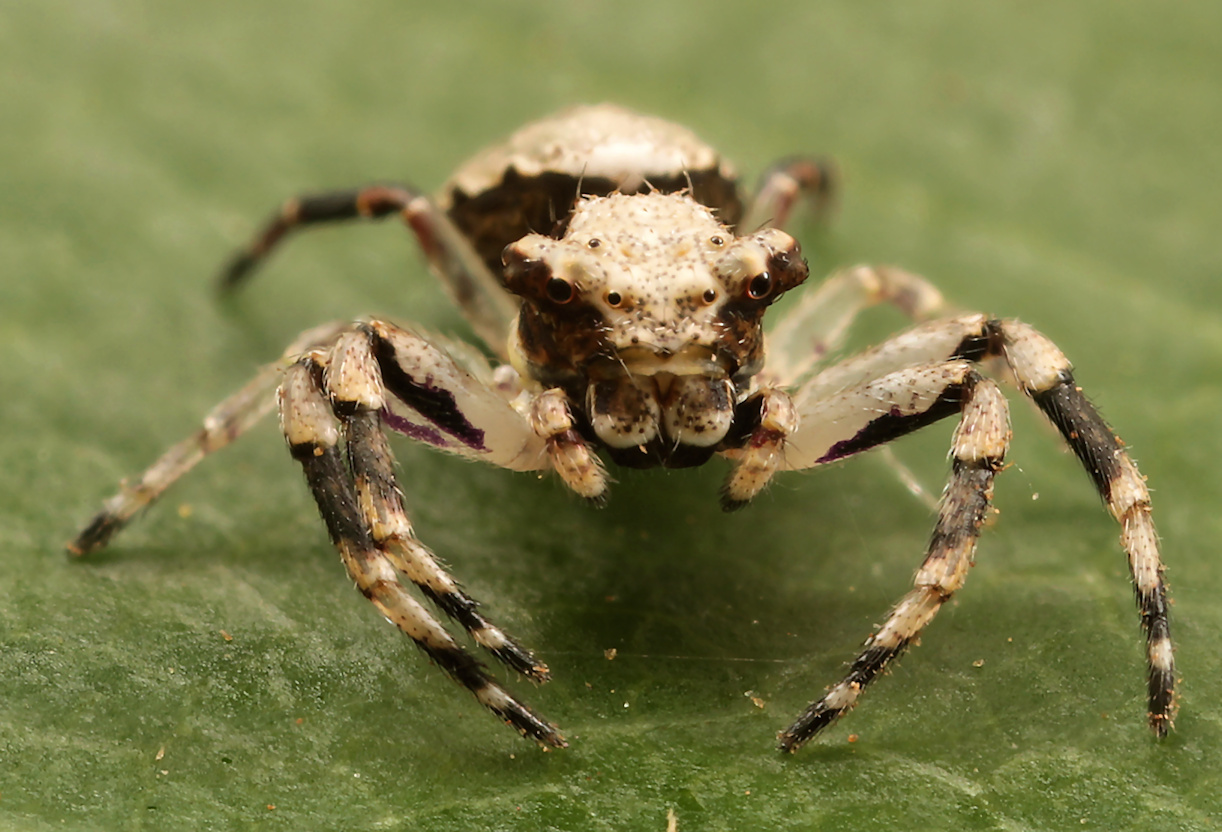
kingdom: Animalia
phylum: Arthropoda
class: Arachnida
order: Araneae
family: Thomisidae
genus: Pherecydes
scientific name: Pherecydes zebra
